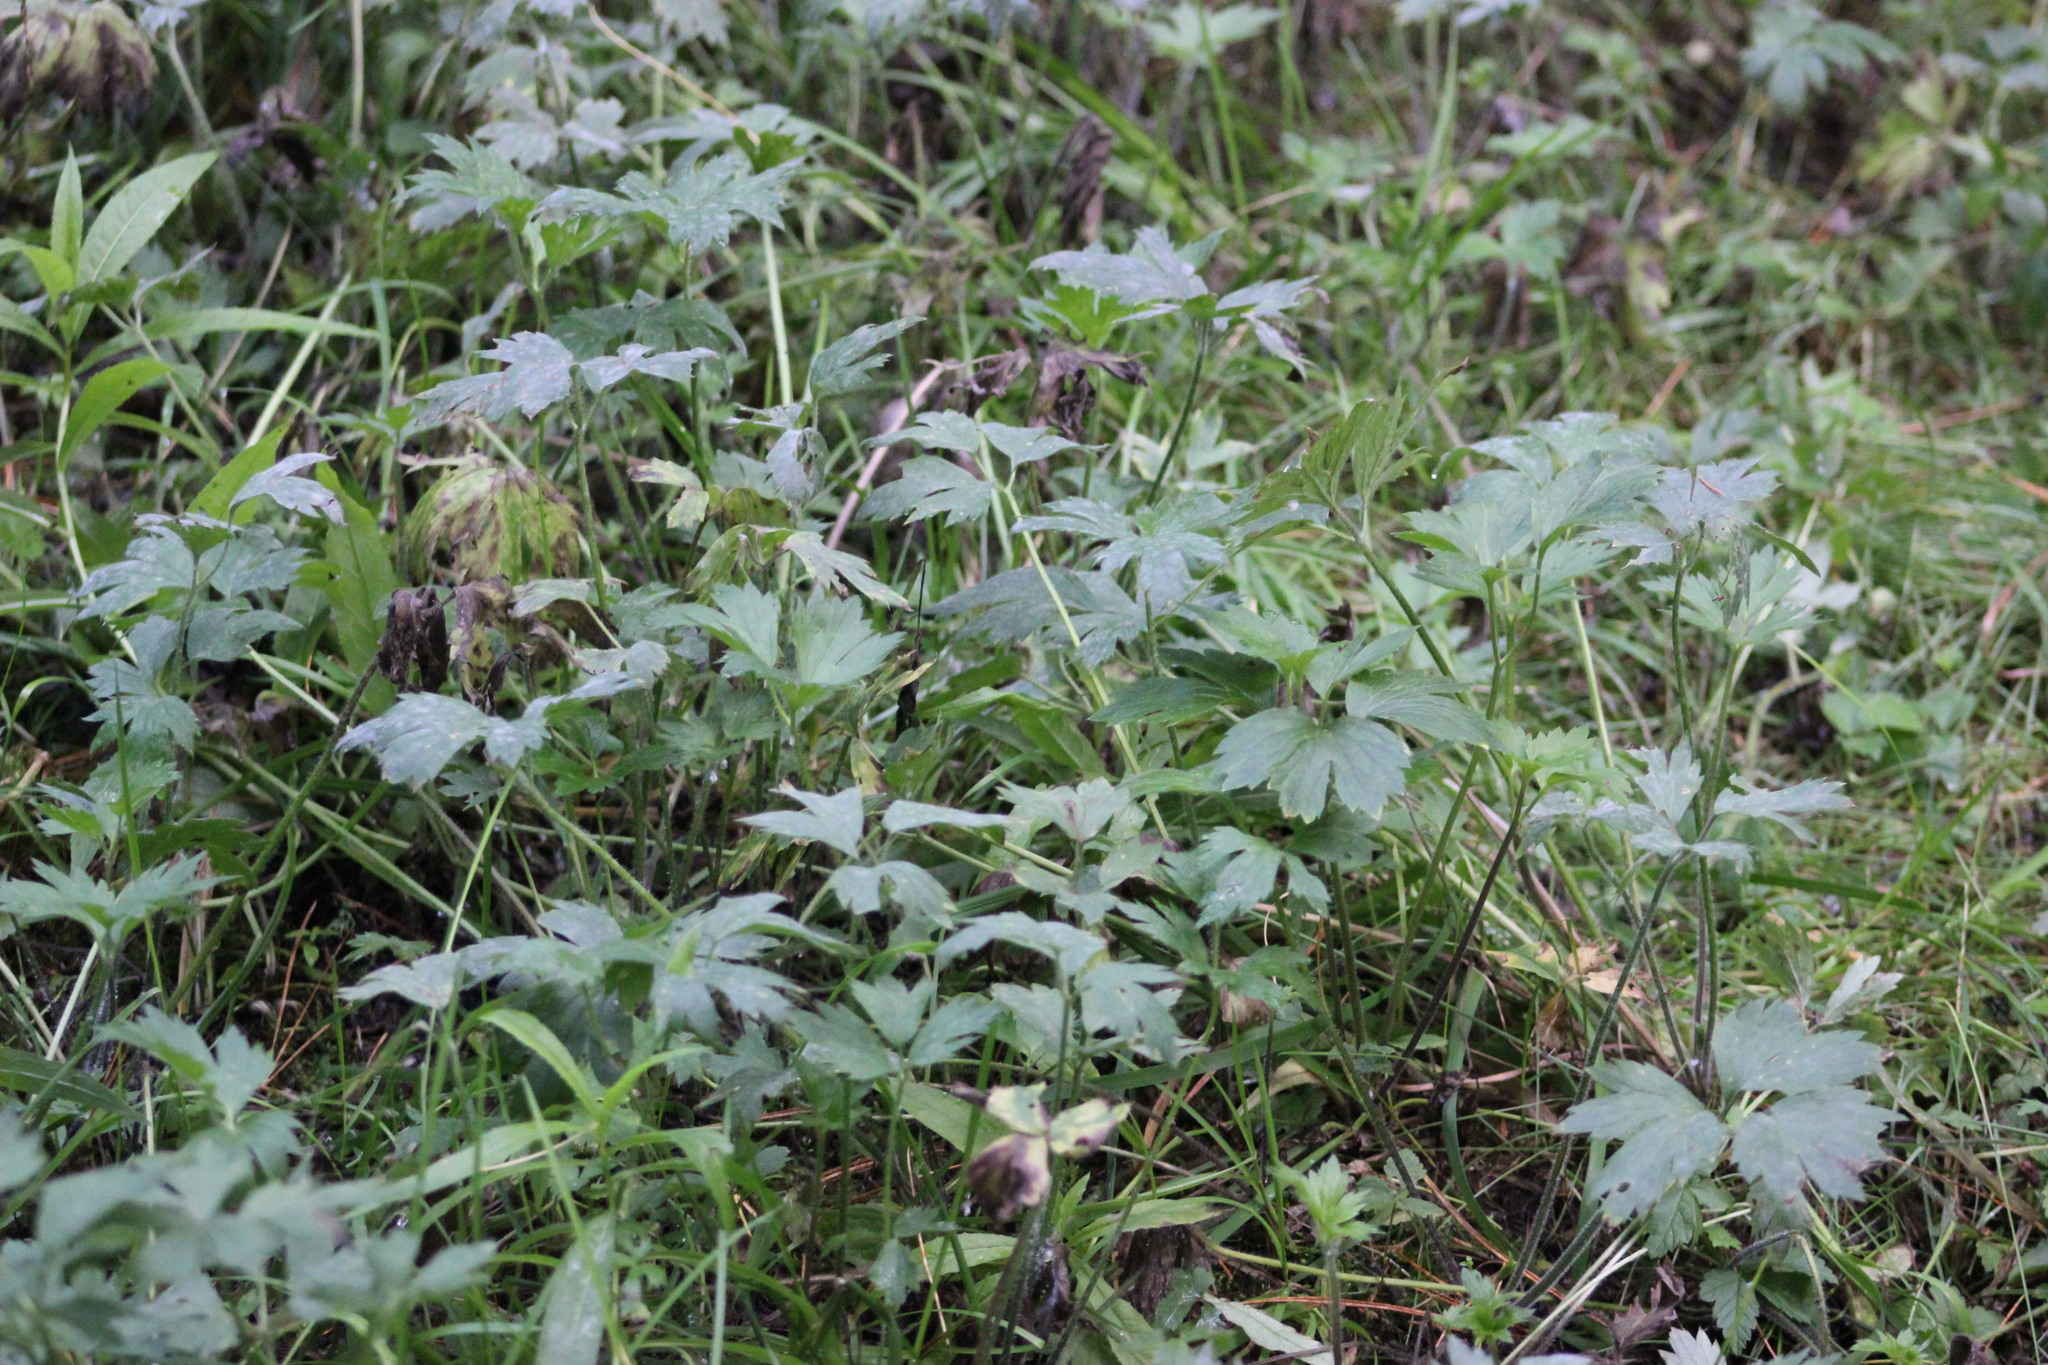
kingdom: Plantae
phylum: Tracheophyta
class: Magnoliopsida
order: Ranunculales
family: Ranunculaceae
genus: Ranunculus
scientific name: Ranunculus repens
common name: Creeping buttercup
